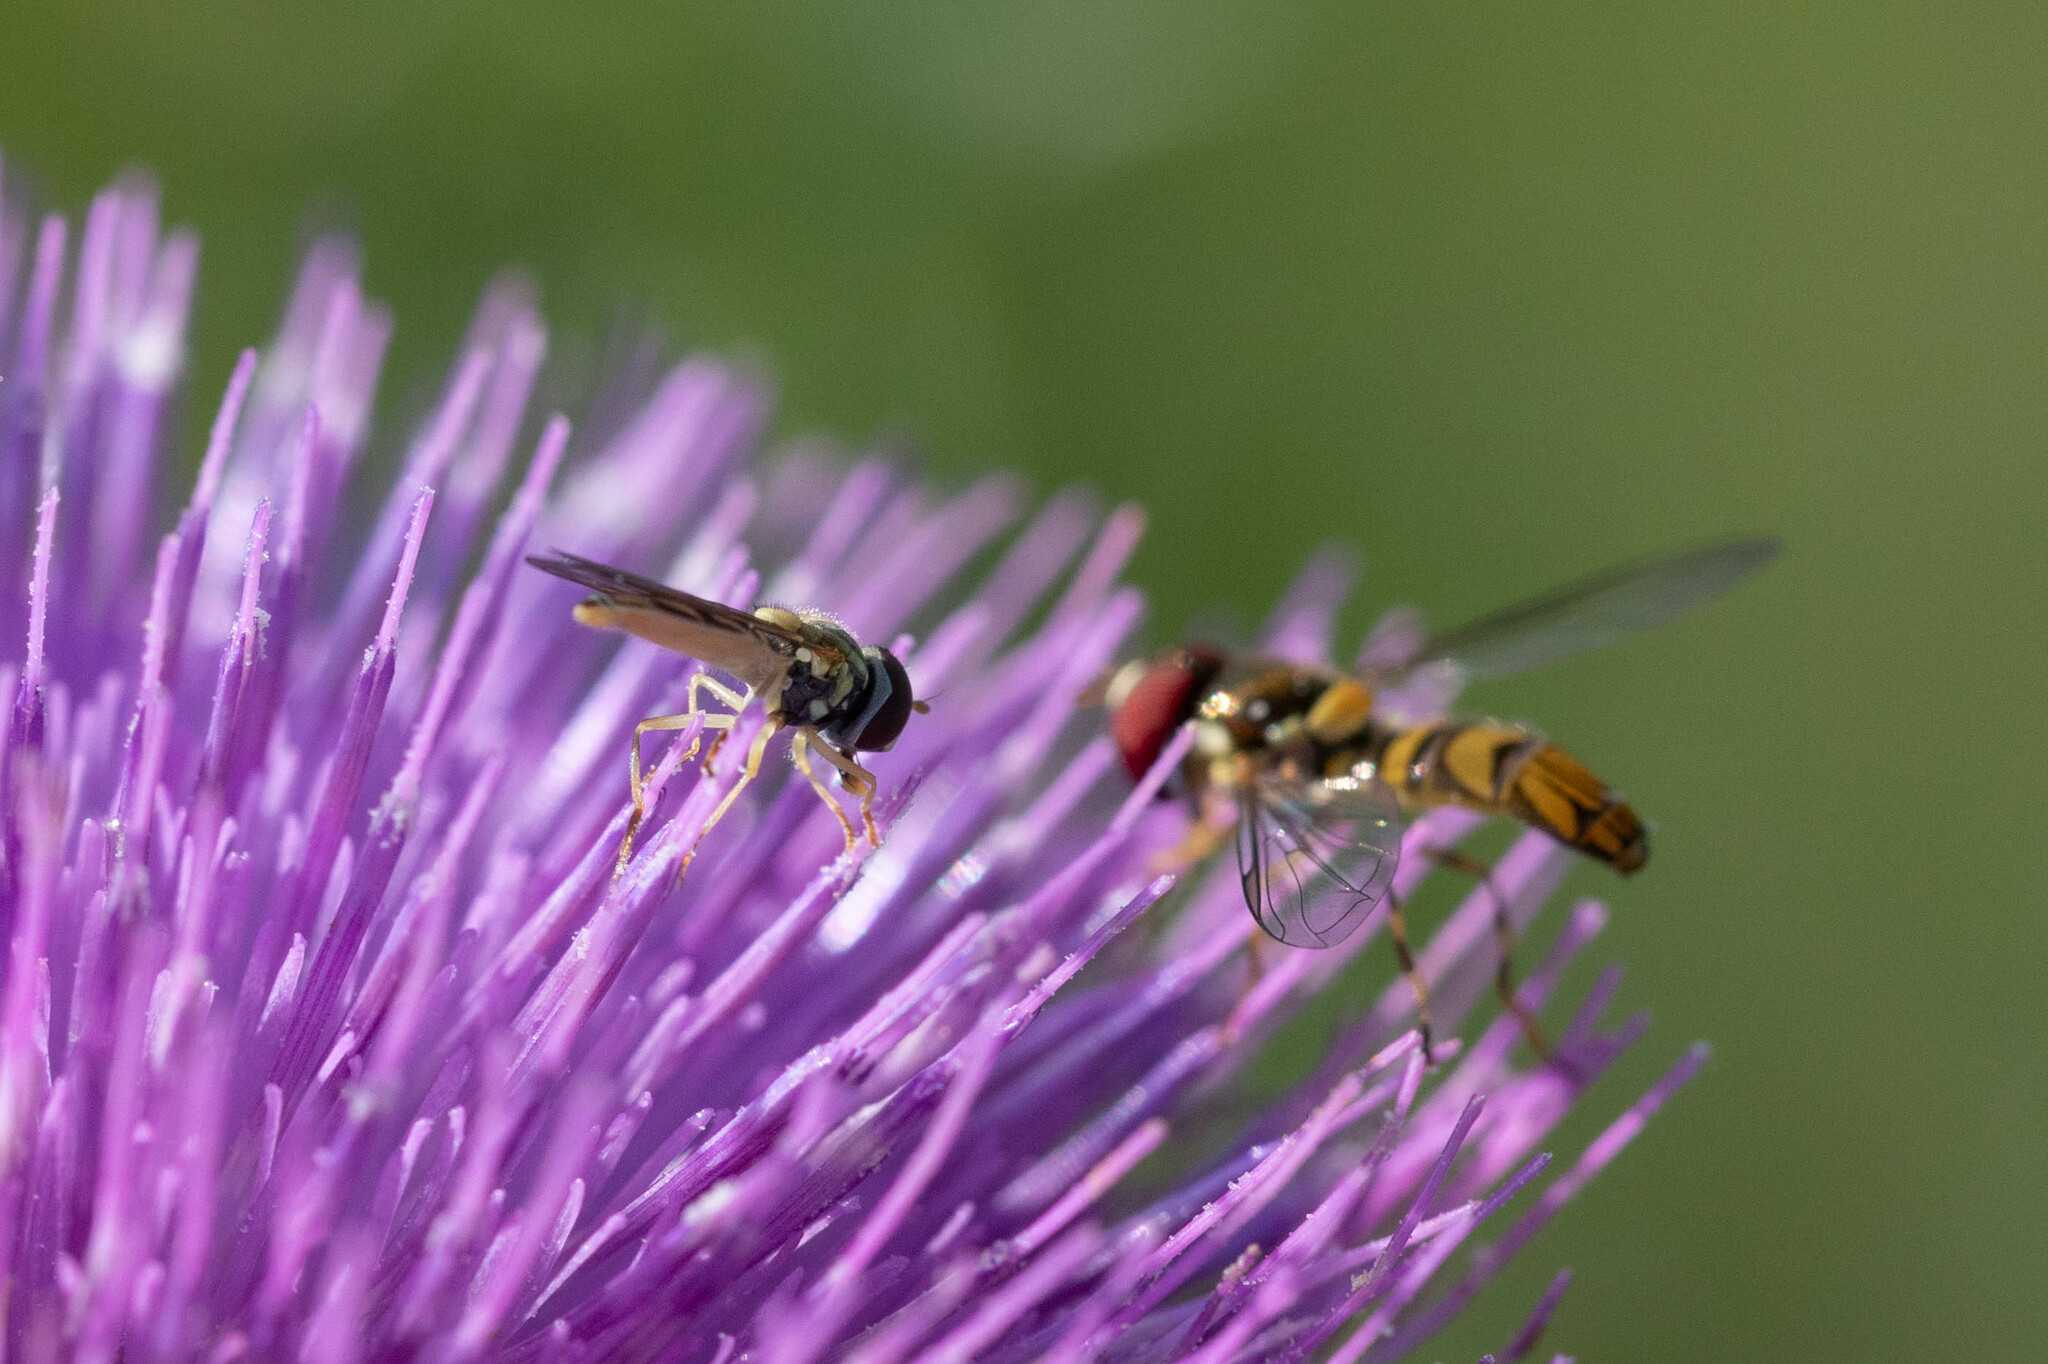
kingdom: Animalia
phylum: Arthropoda
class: Insecta
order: Diptera
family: Syrphidae
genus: Toxomerus
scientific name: Toxomerus marginatus
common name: Syrphid fly
